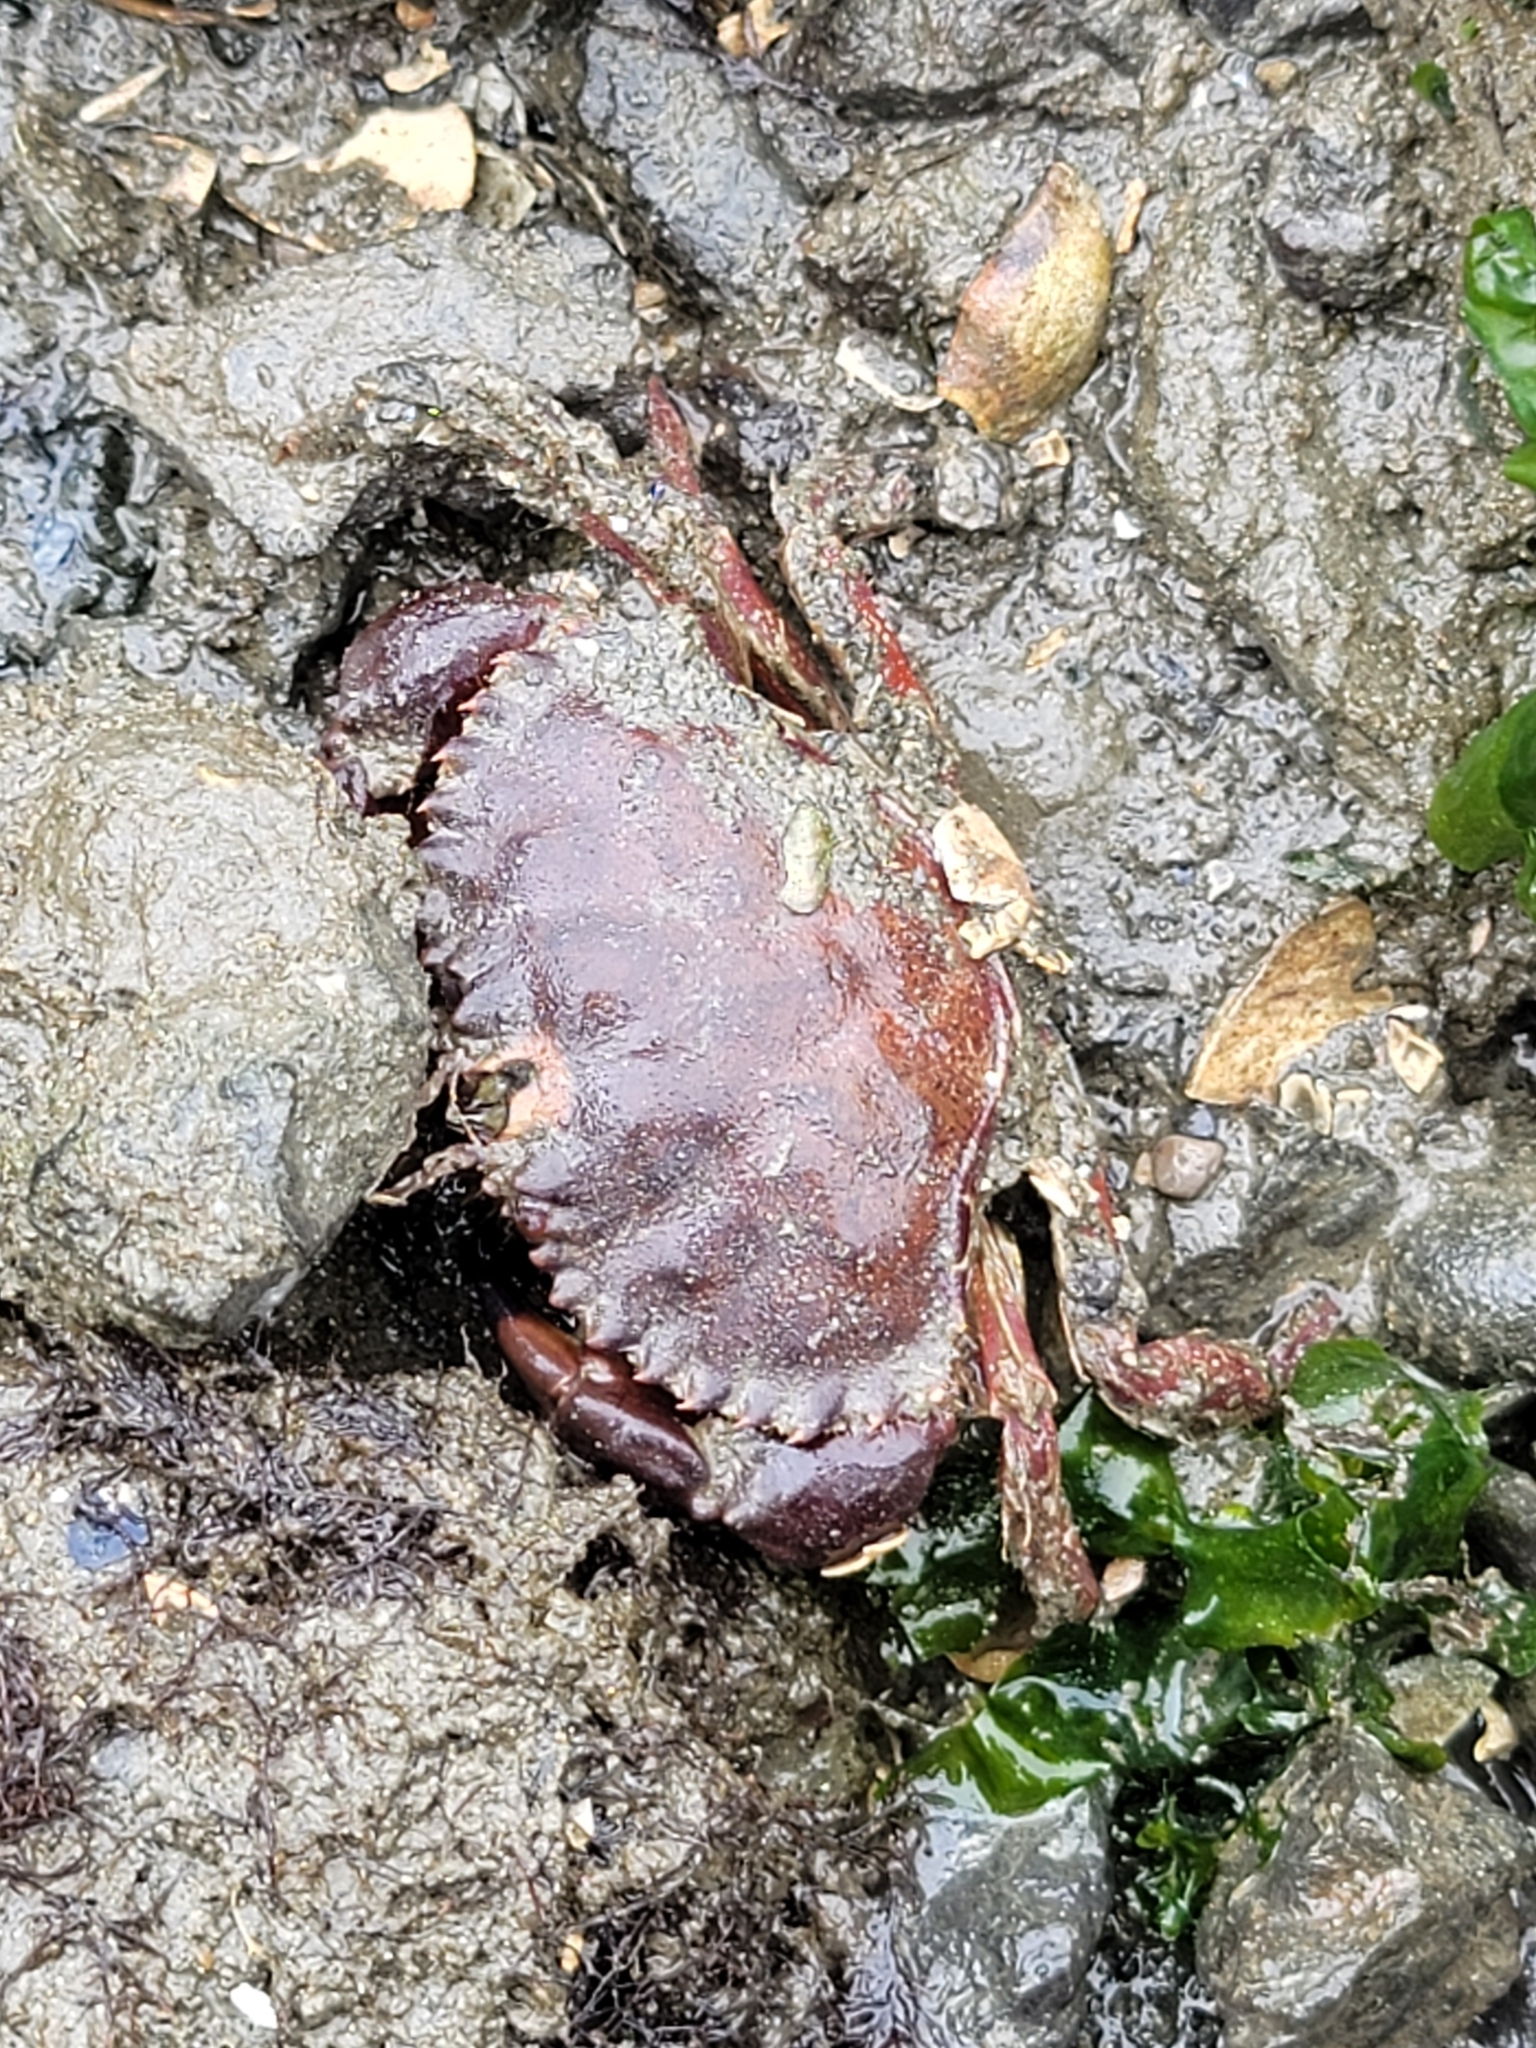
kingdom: Animalia
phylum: Arthropoda
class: Malacostraca
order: Decapoda
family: Cancridae
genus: Romaleon
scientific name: Romaleon antennarium
